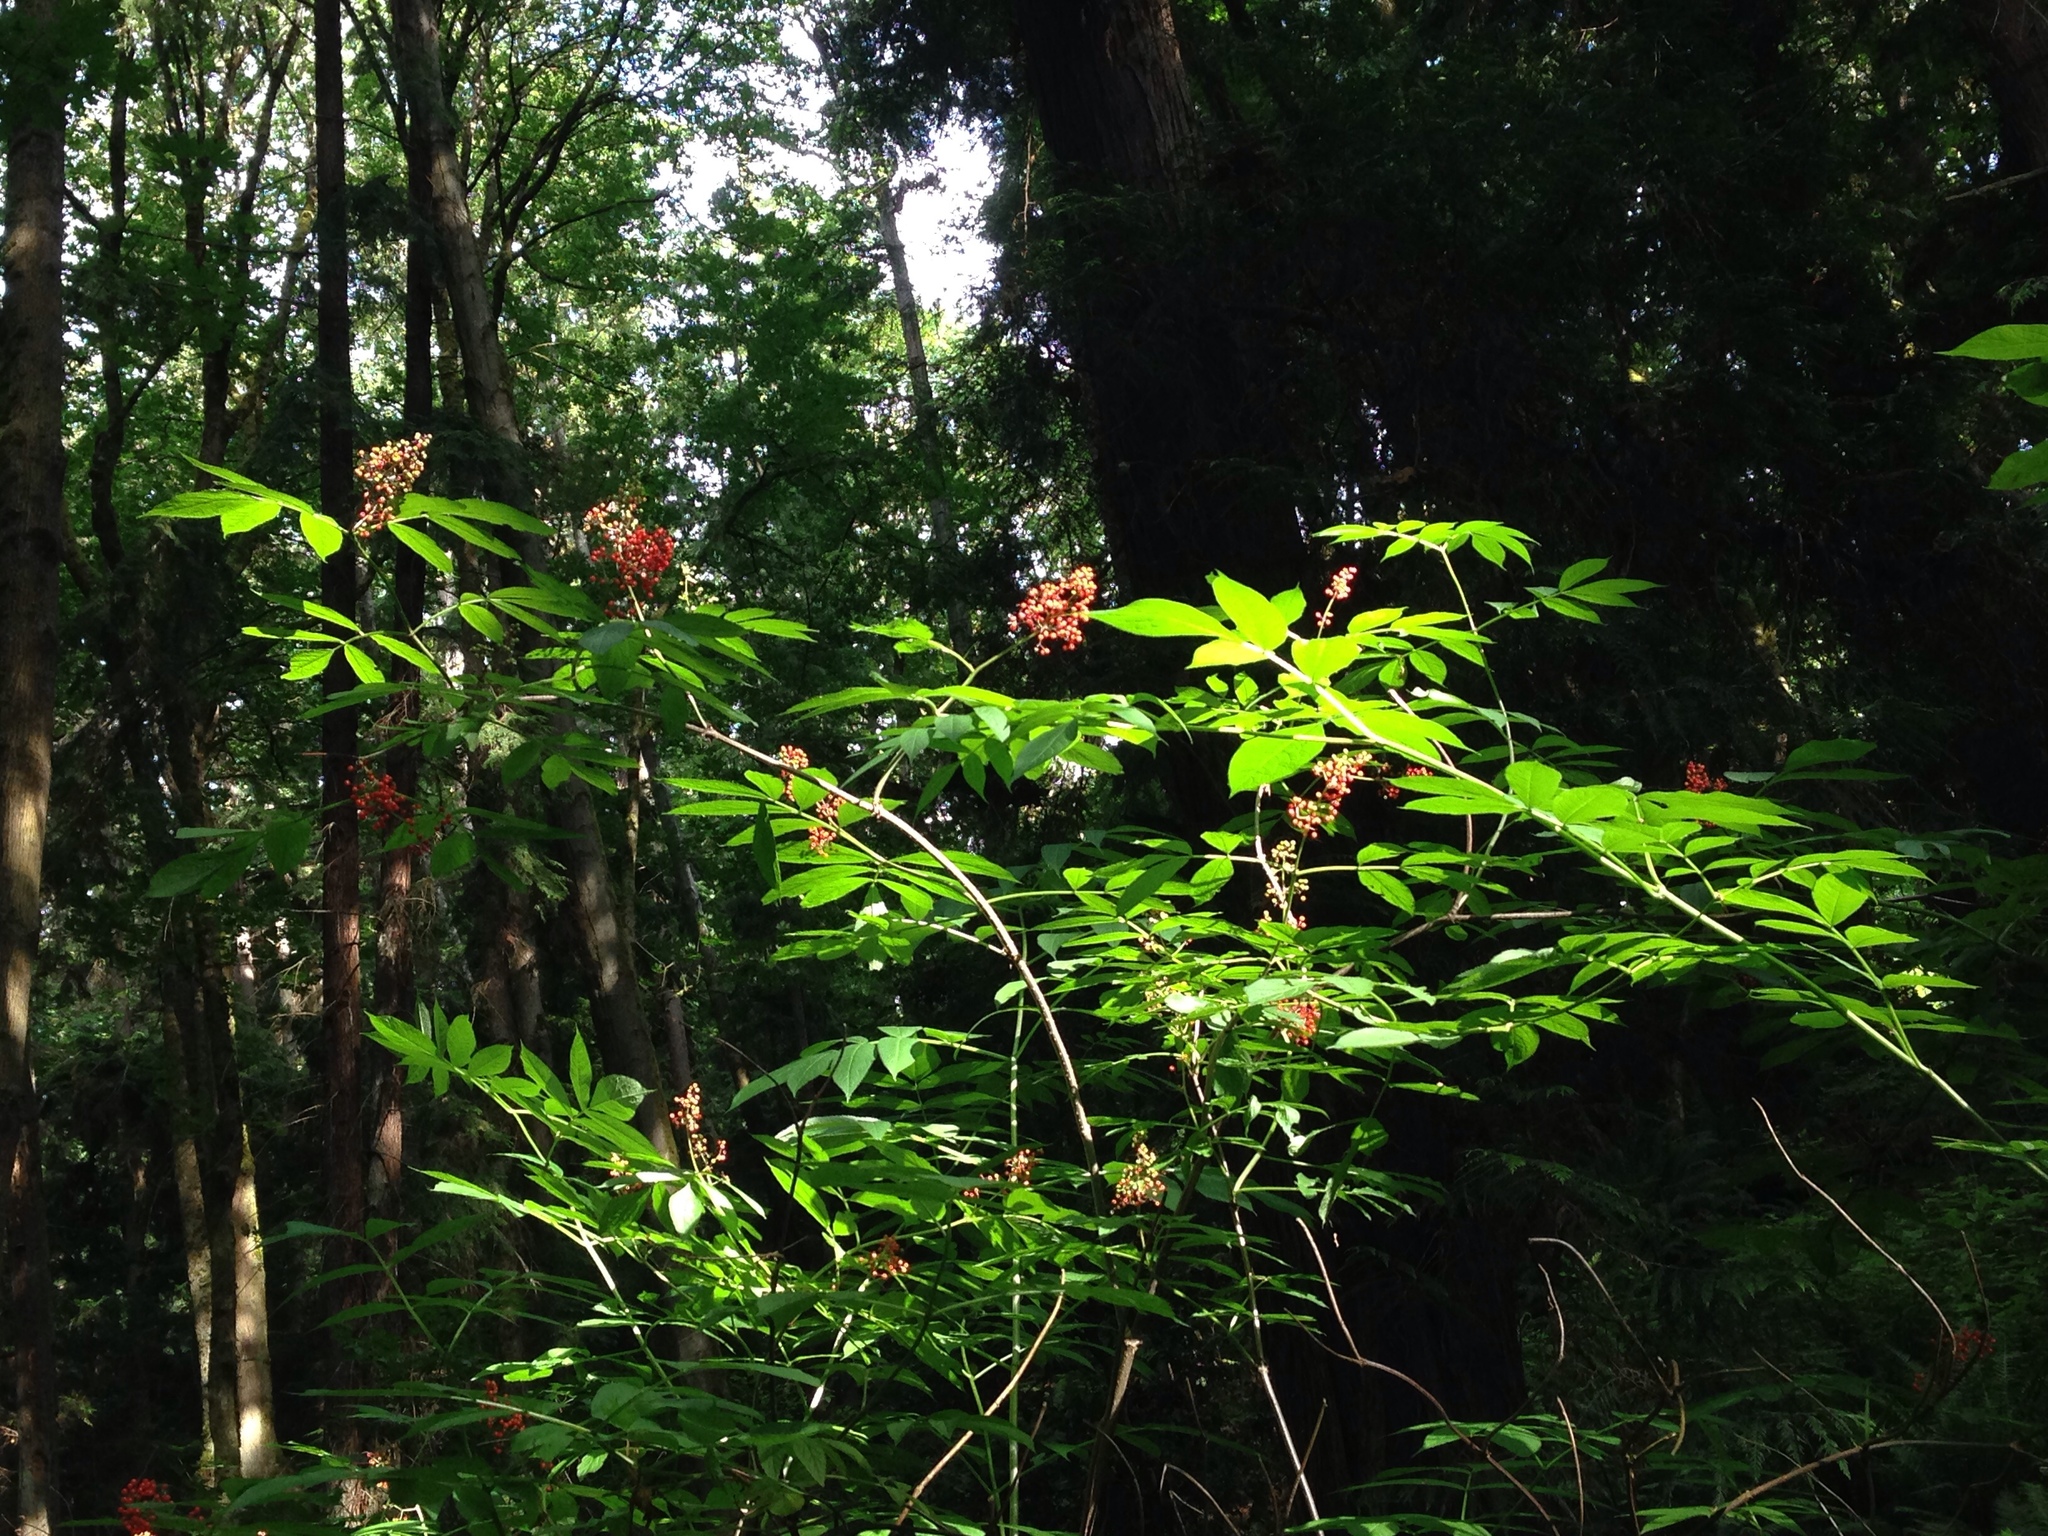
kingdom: Plantae
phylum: Tracheophyta
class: Magnoliopsida
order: Dipsacales
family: Viburnaceae
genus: Sambucus
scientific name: Sambucus racemosa
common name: Red-berried elder
